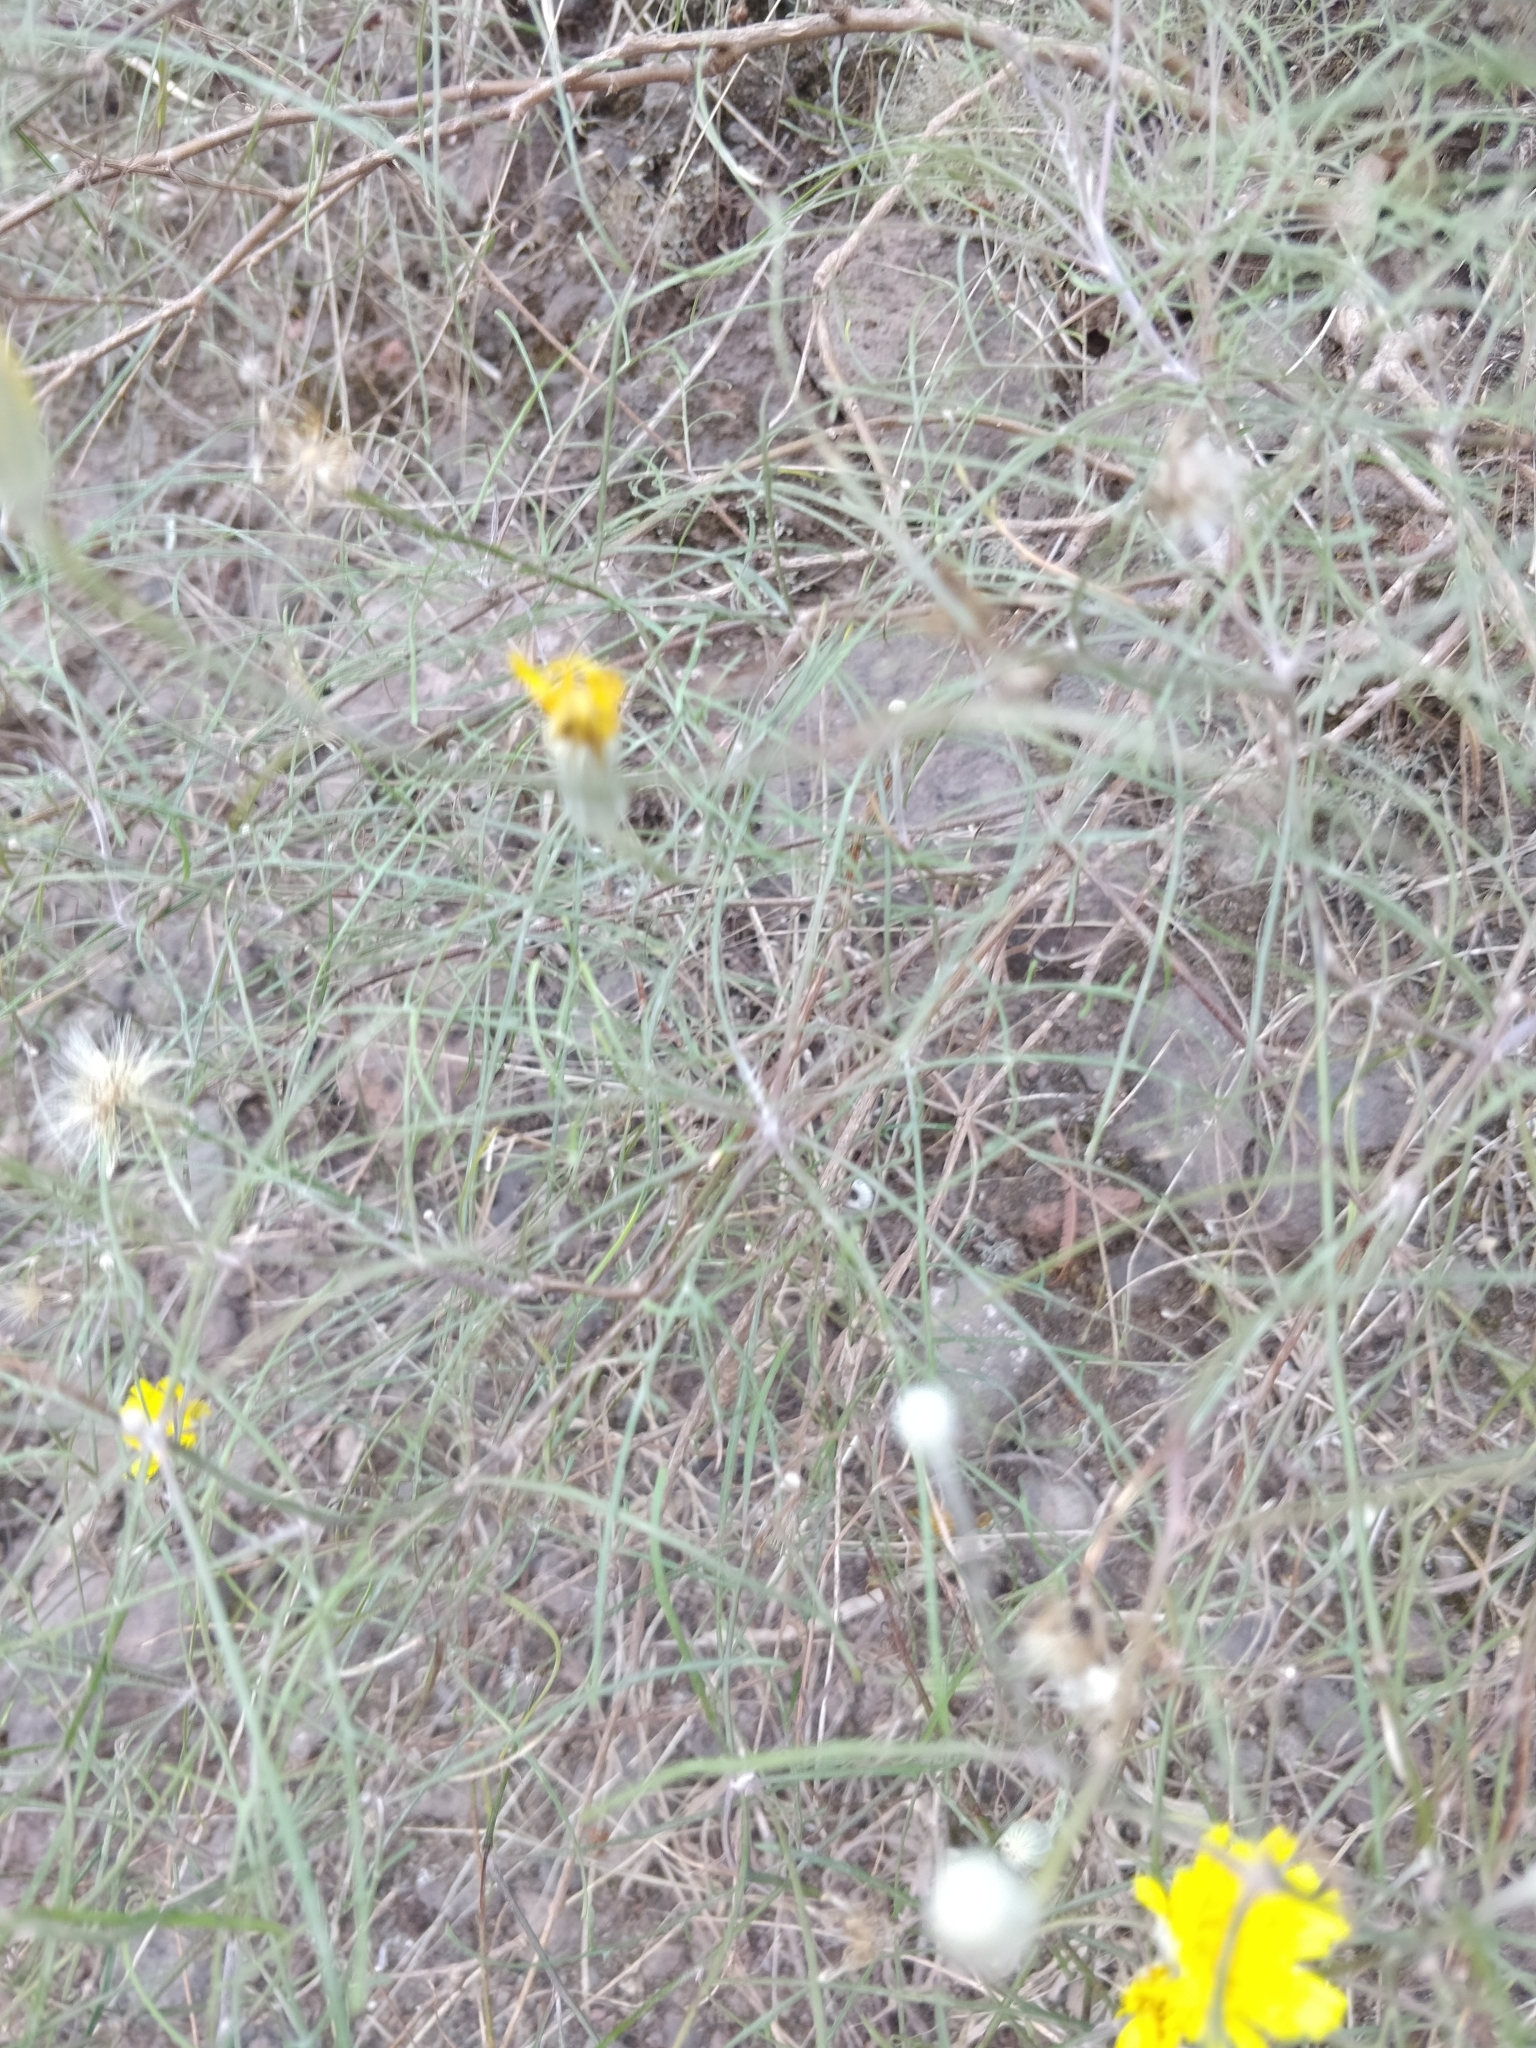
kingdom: Plantae
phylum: Tracheophyta
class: Magnoliopsida
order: Asterales
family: Asteraceae
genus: Tolpis
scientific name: Tolpis succulenta
